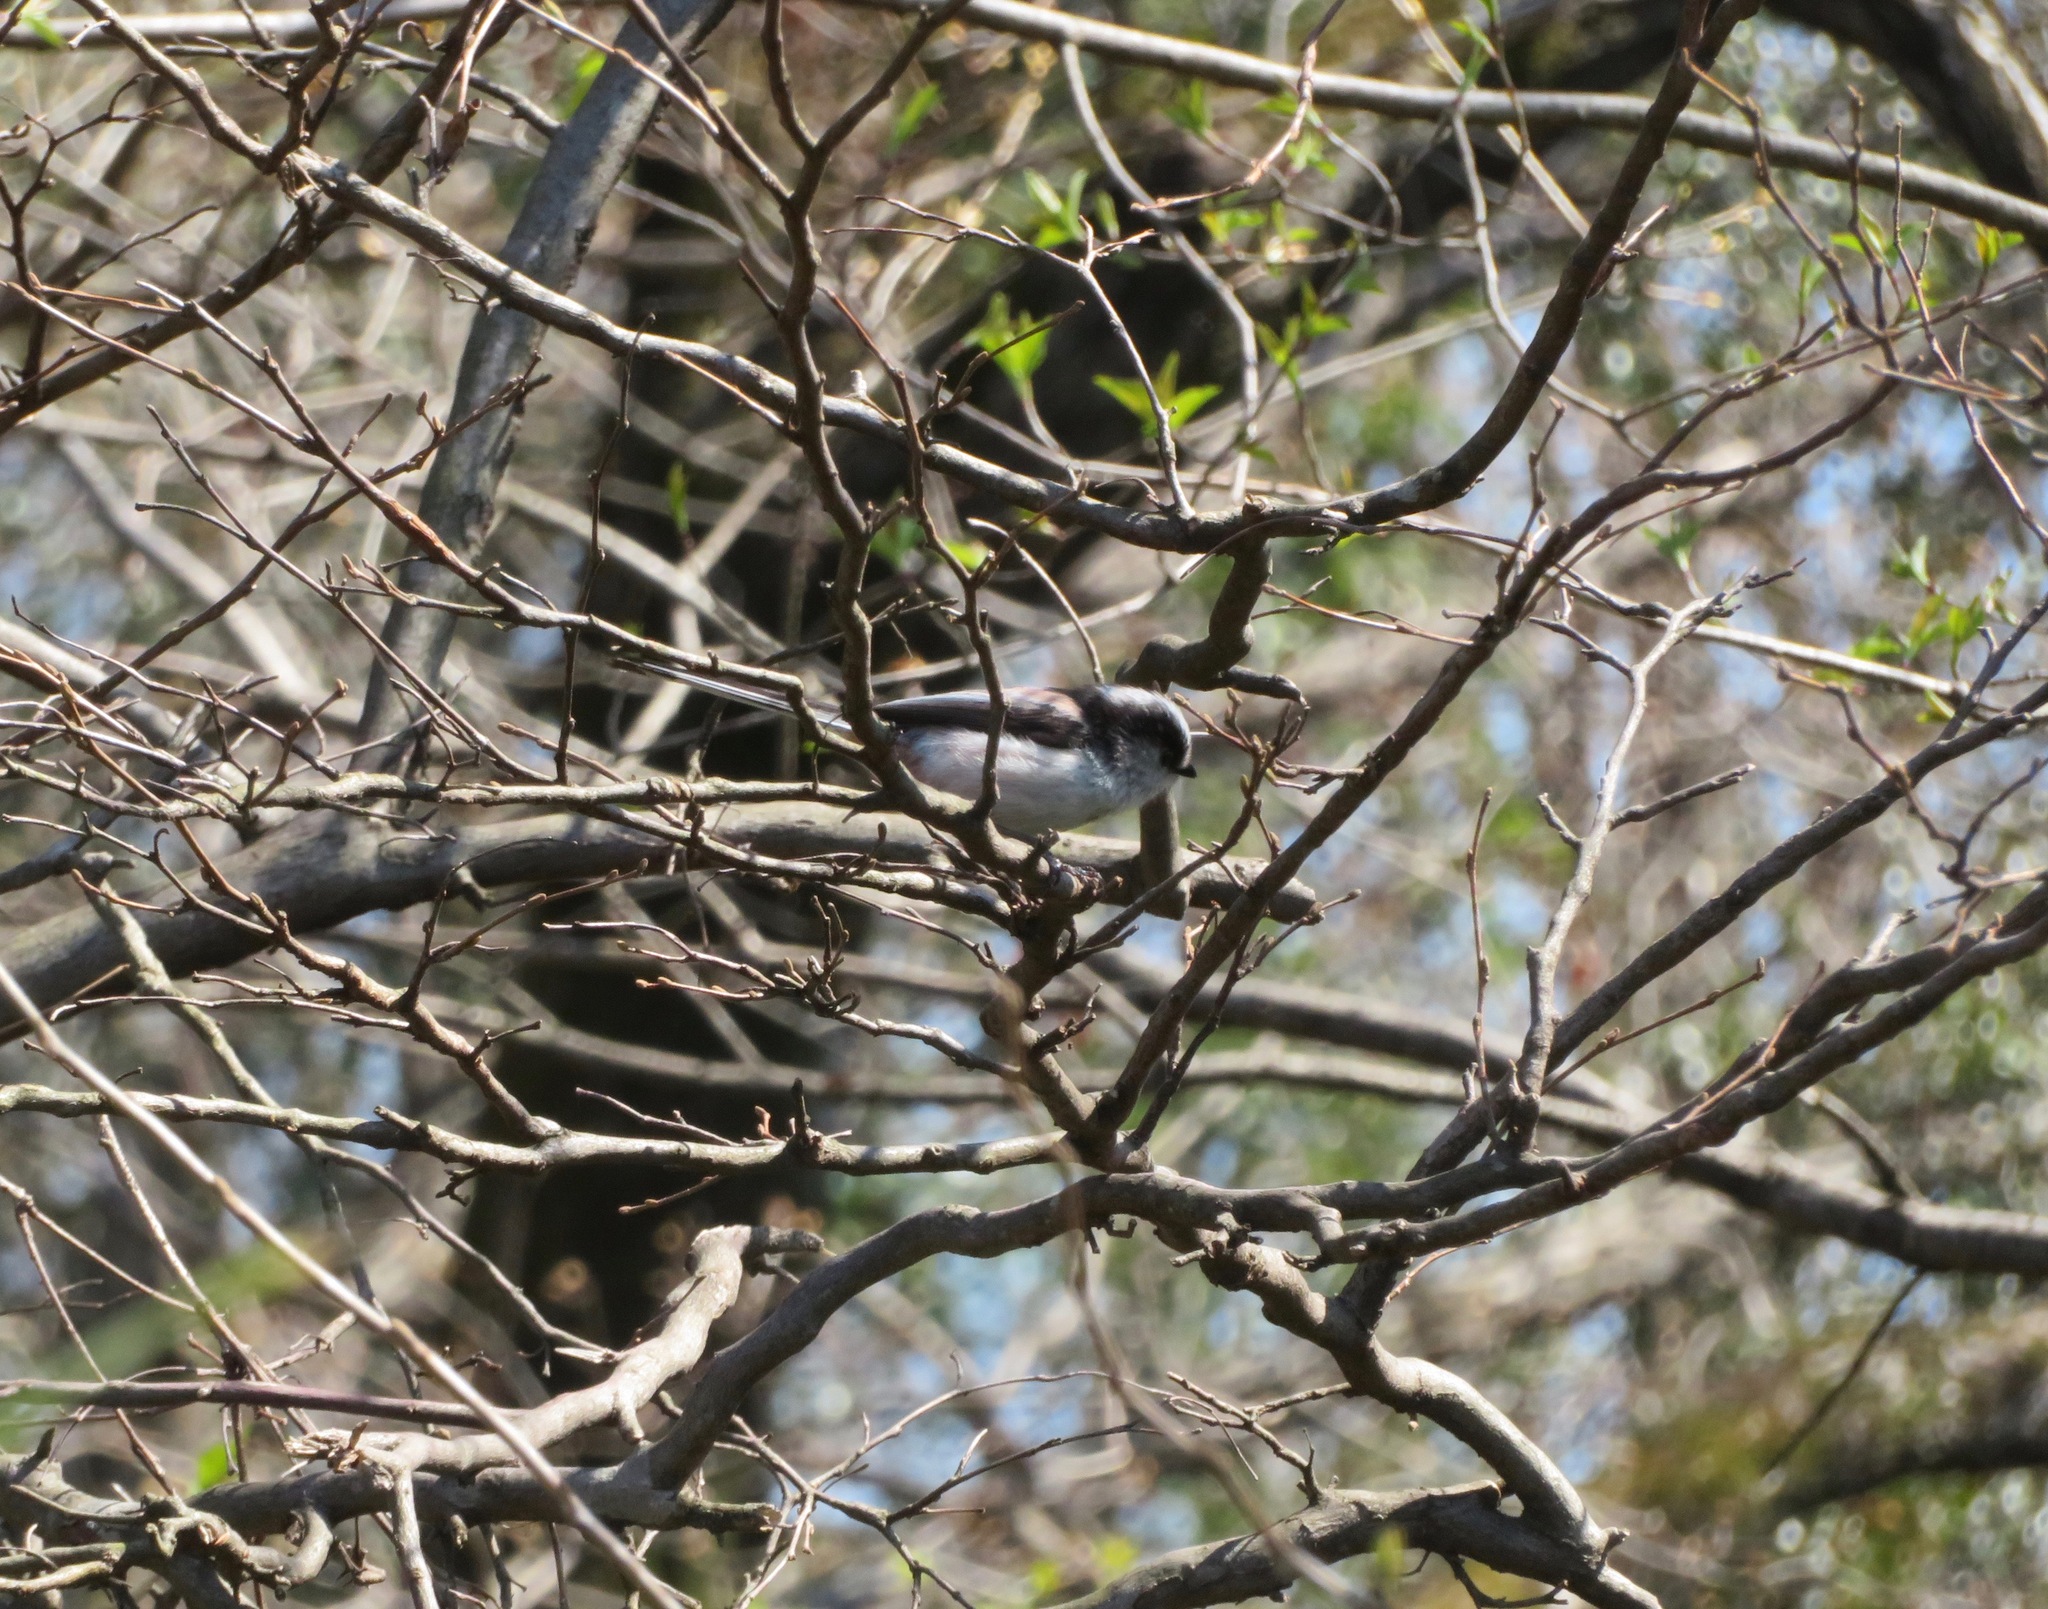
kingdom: Animalia
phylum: Chordata
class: Aves
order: Passeriformes
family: Aegithalidae
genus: Aegithalos
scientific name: Aegithalos caudatus
